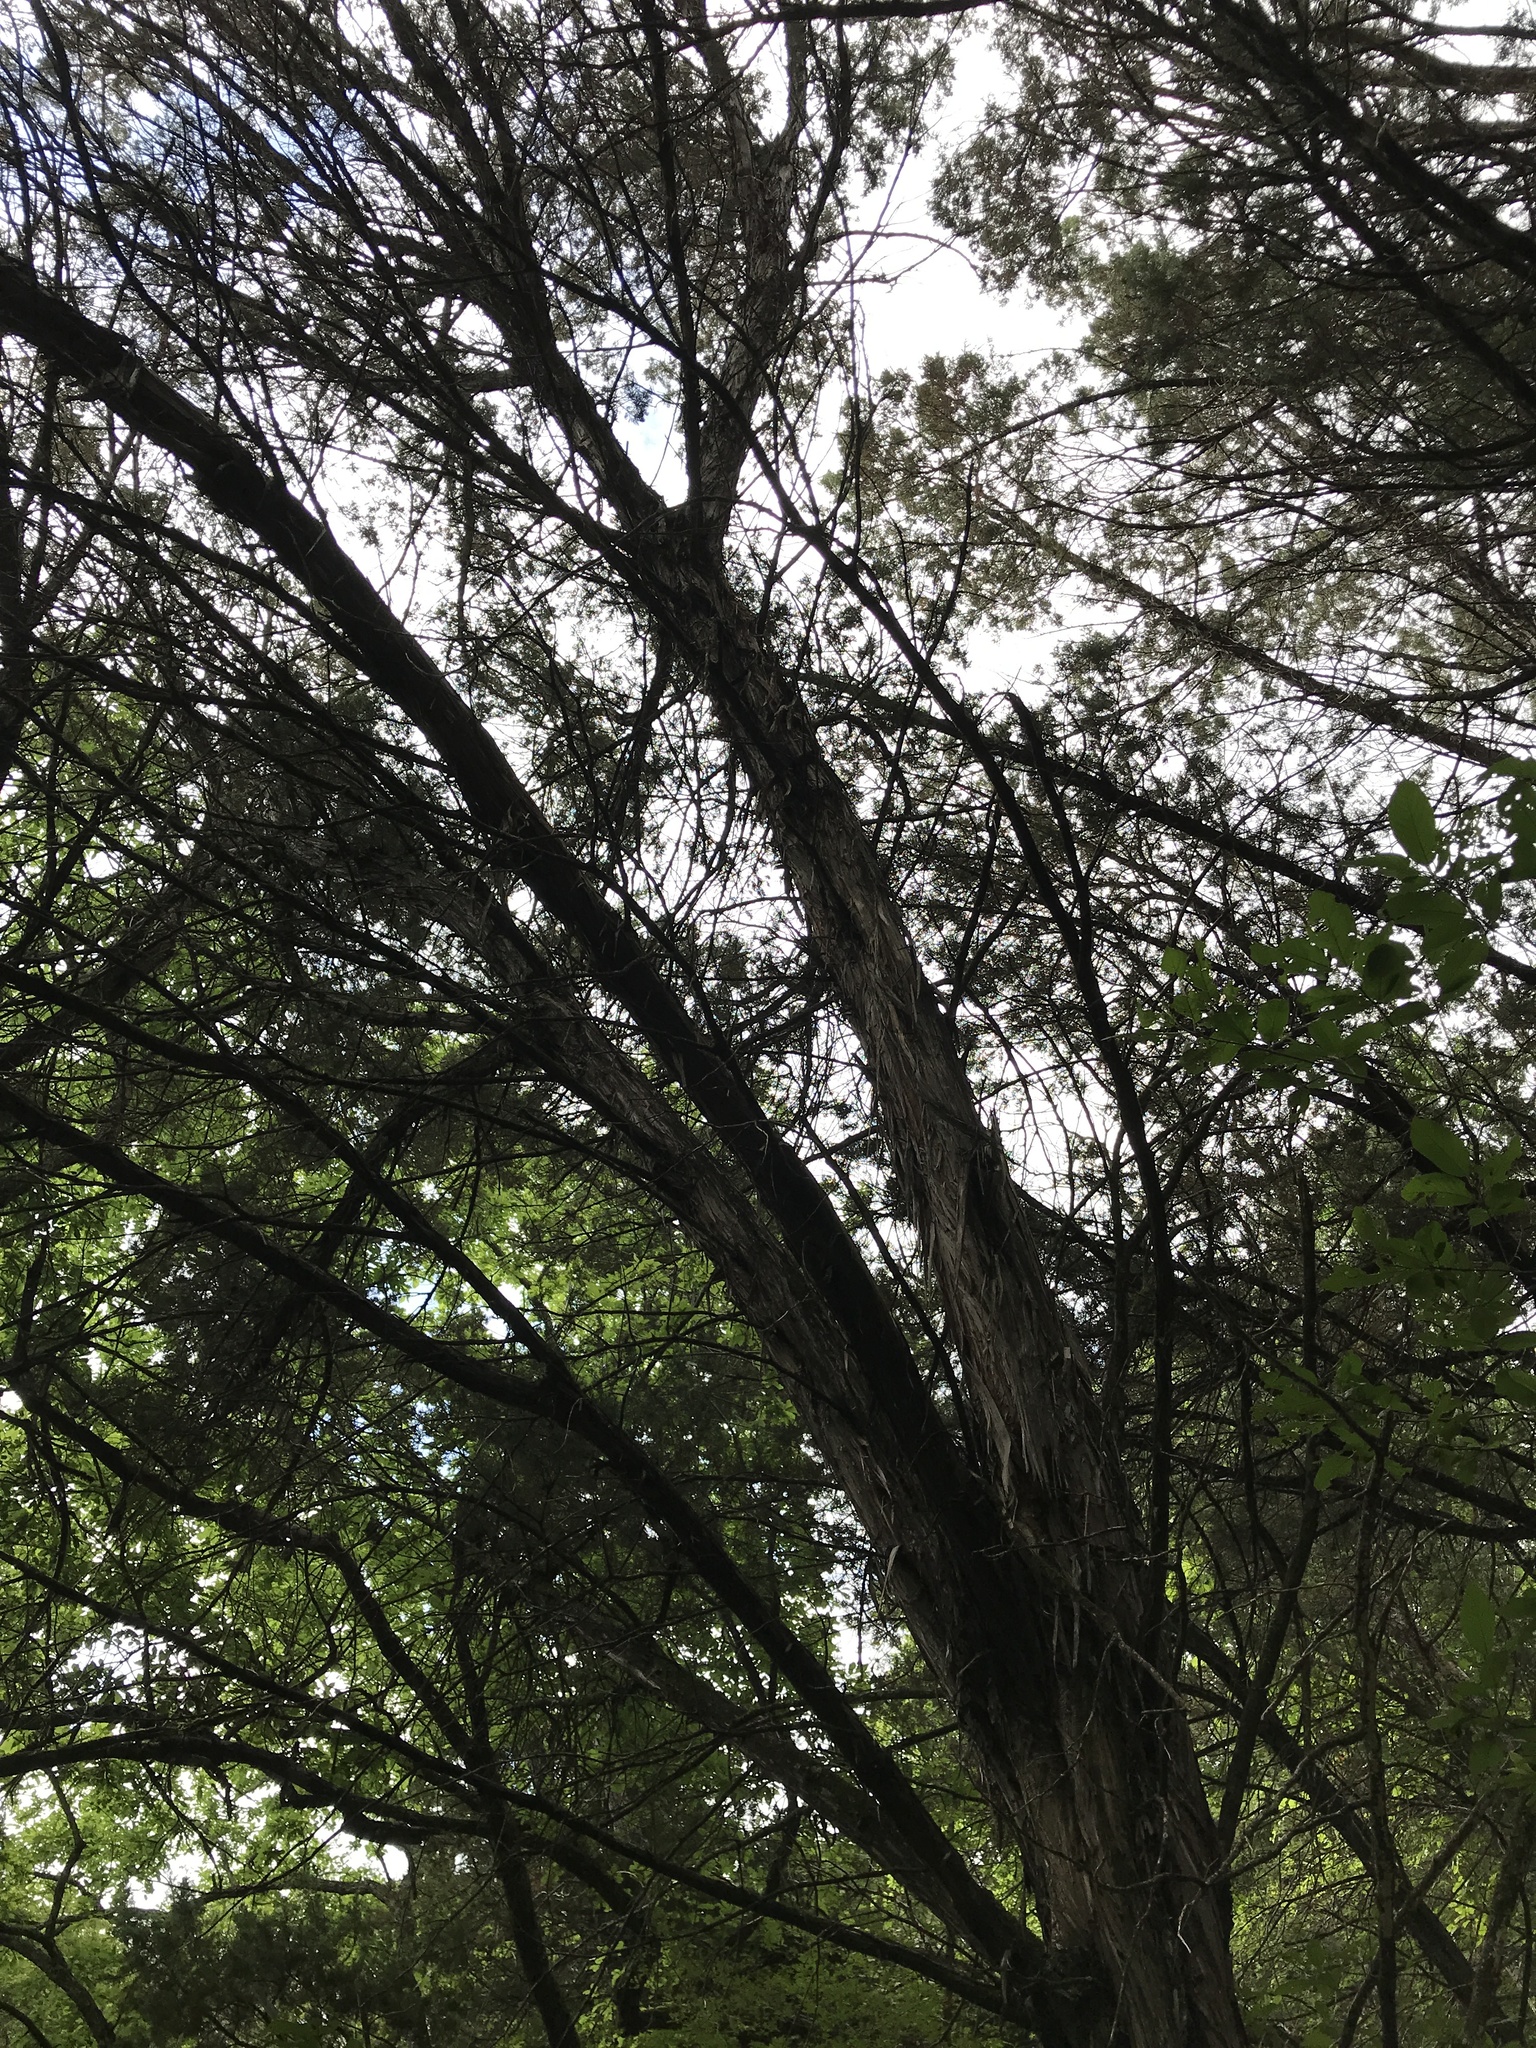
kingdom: Plantae
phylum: Tracheophyta
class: Pinopsida
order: Pinales
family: Cupressaceae
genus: Juniperus
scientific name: Juniperus ashei
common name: Mexican juniper
